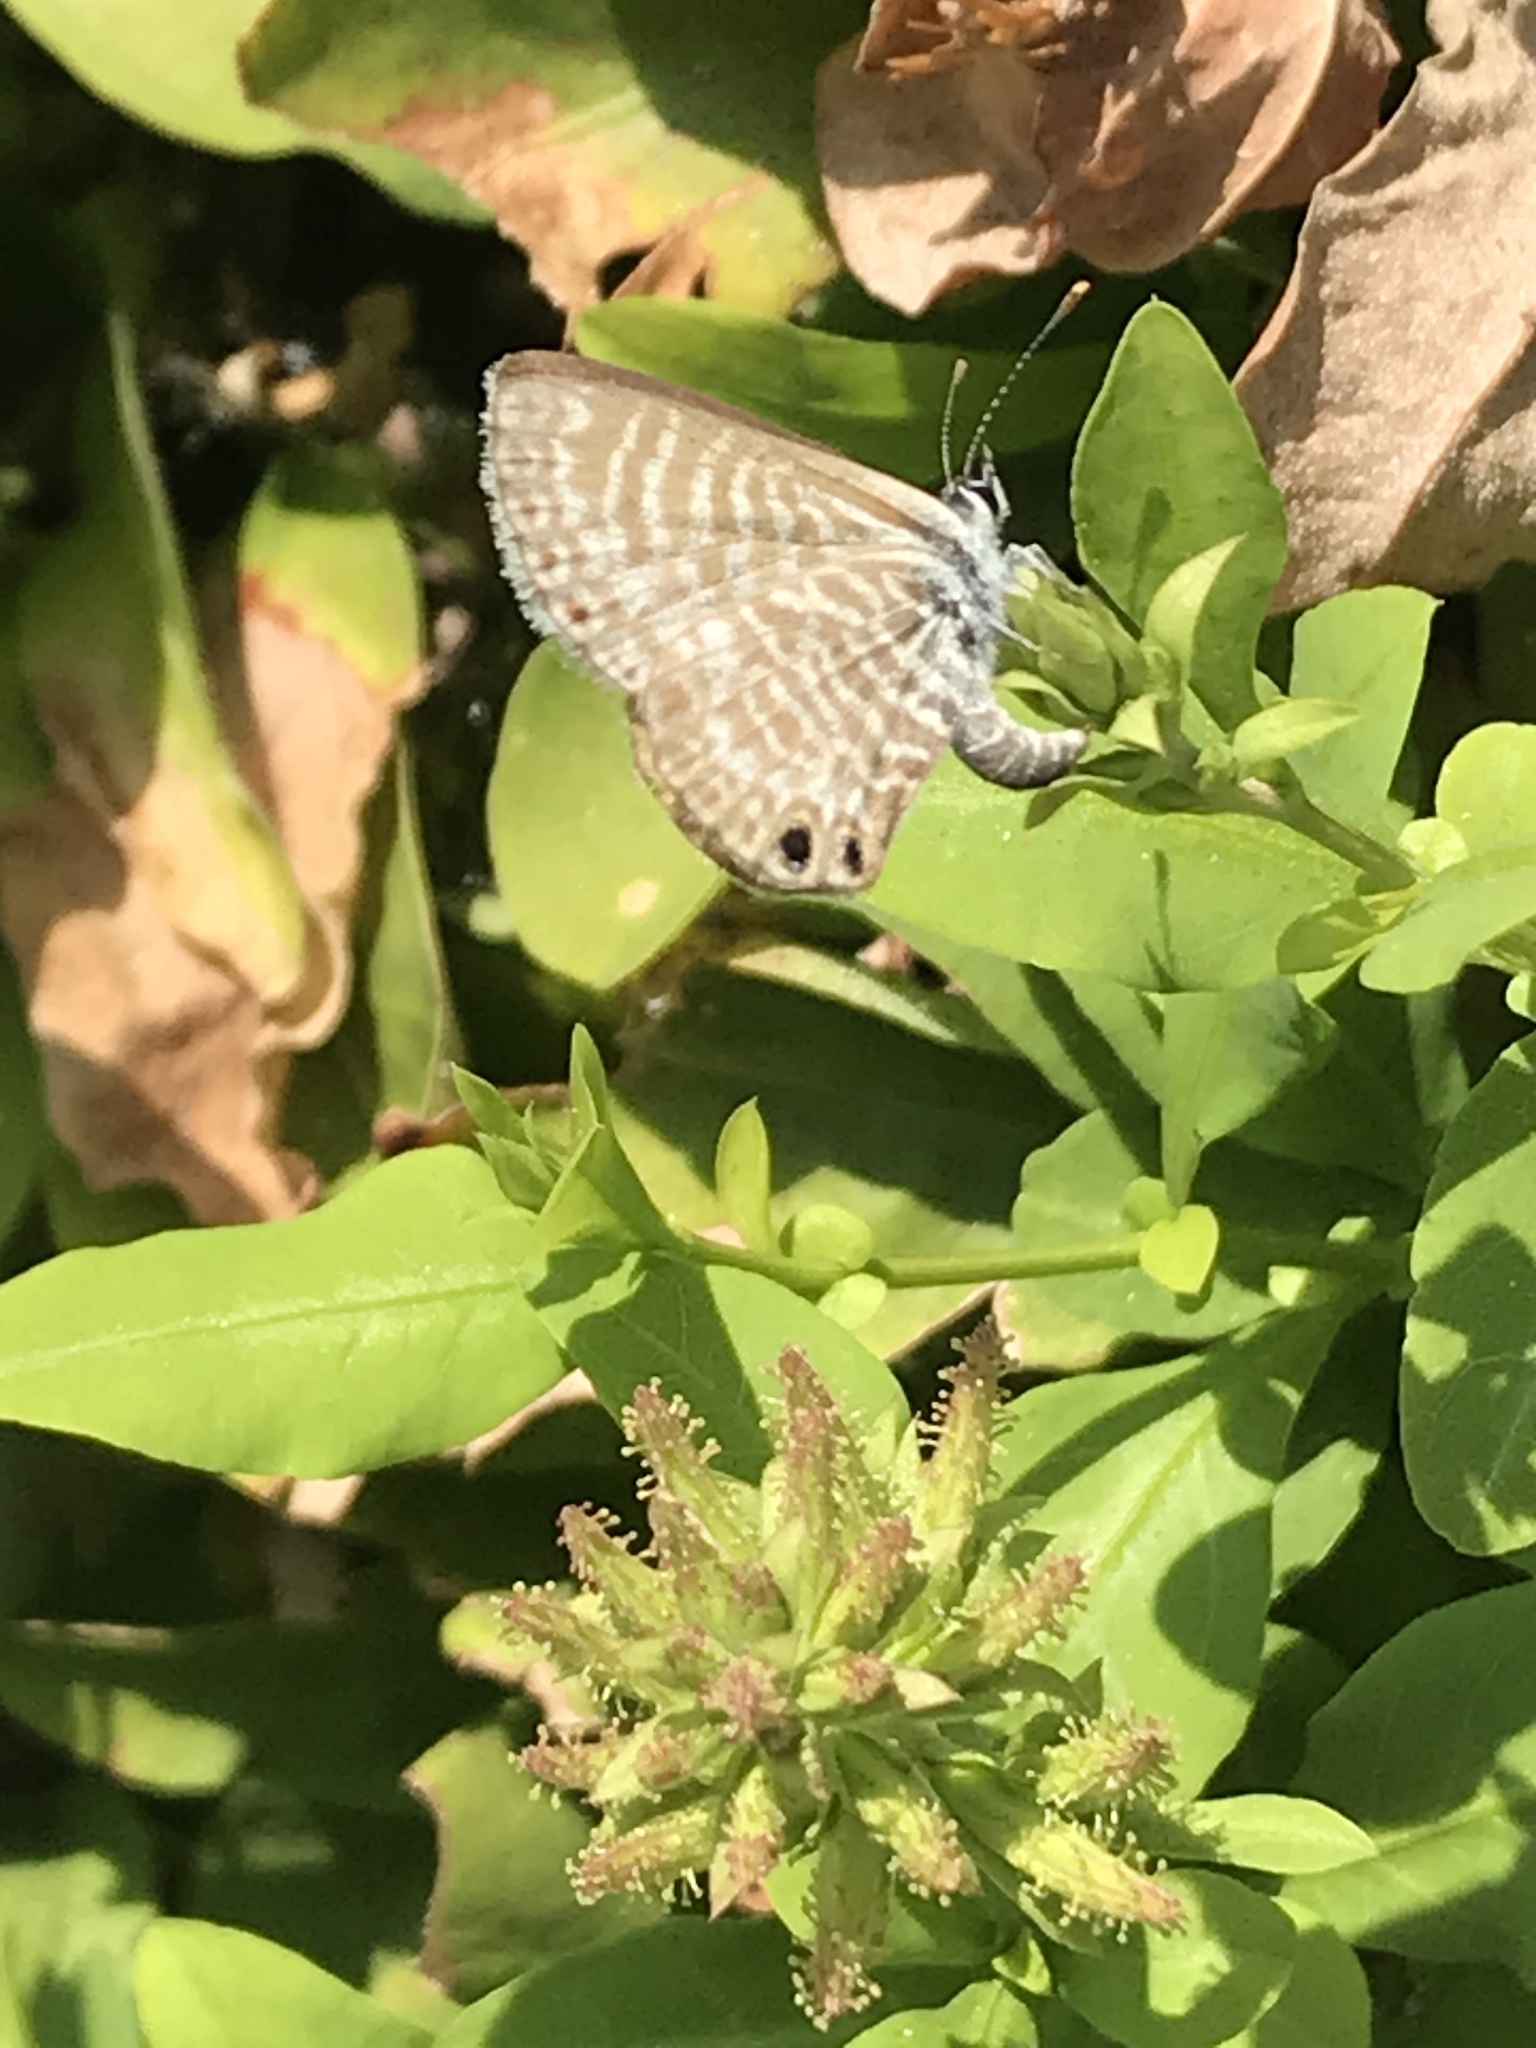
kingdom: Animalia
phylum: Arthropoda
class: Insecta
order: Lepidoptera
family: Lycaenidae
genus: Leptotes
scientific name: Leptotes marina
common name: Marine blue
